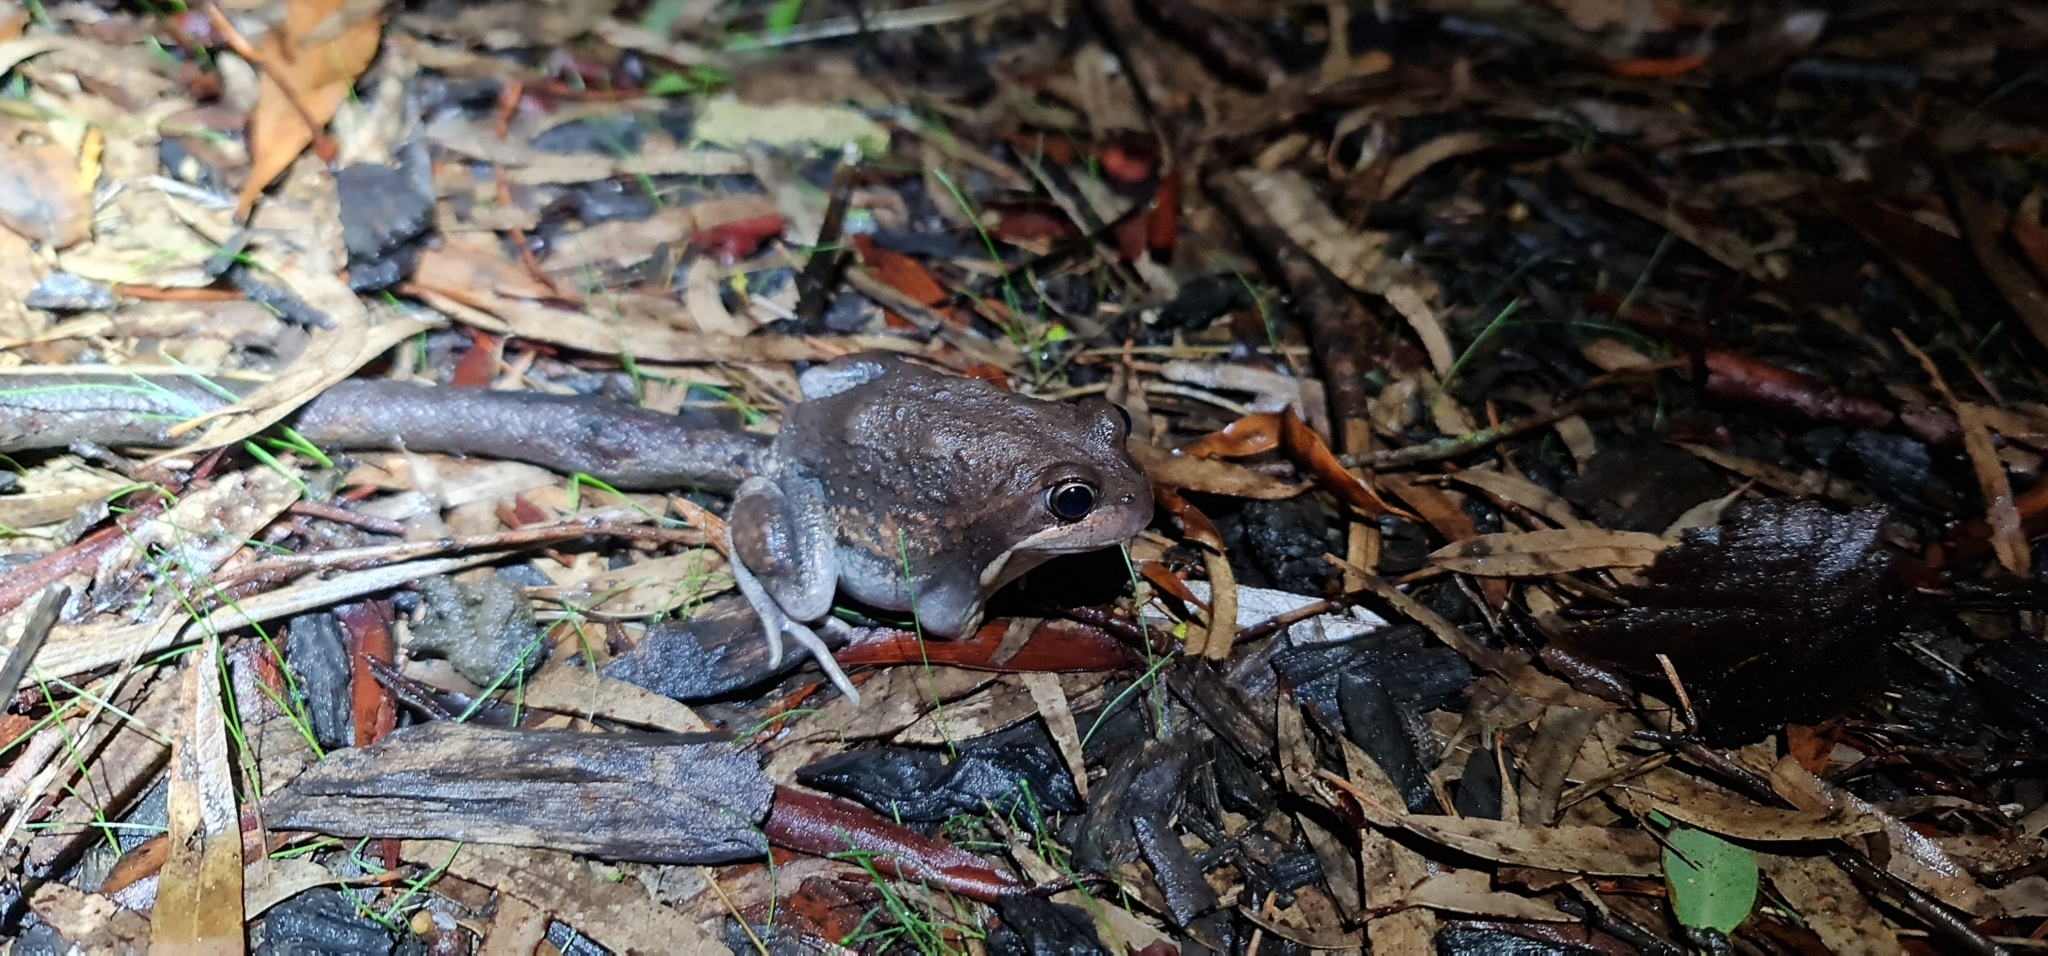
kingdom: Animalia
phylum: Chordata
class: Amphibia
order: Anura
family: Limnodynastidae
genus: Limnodynastes
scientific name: Limnodynastes dumerilii
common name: Banjo frog
